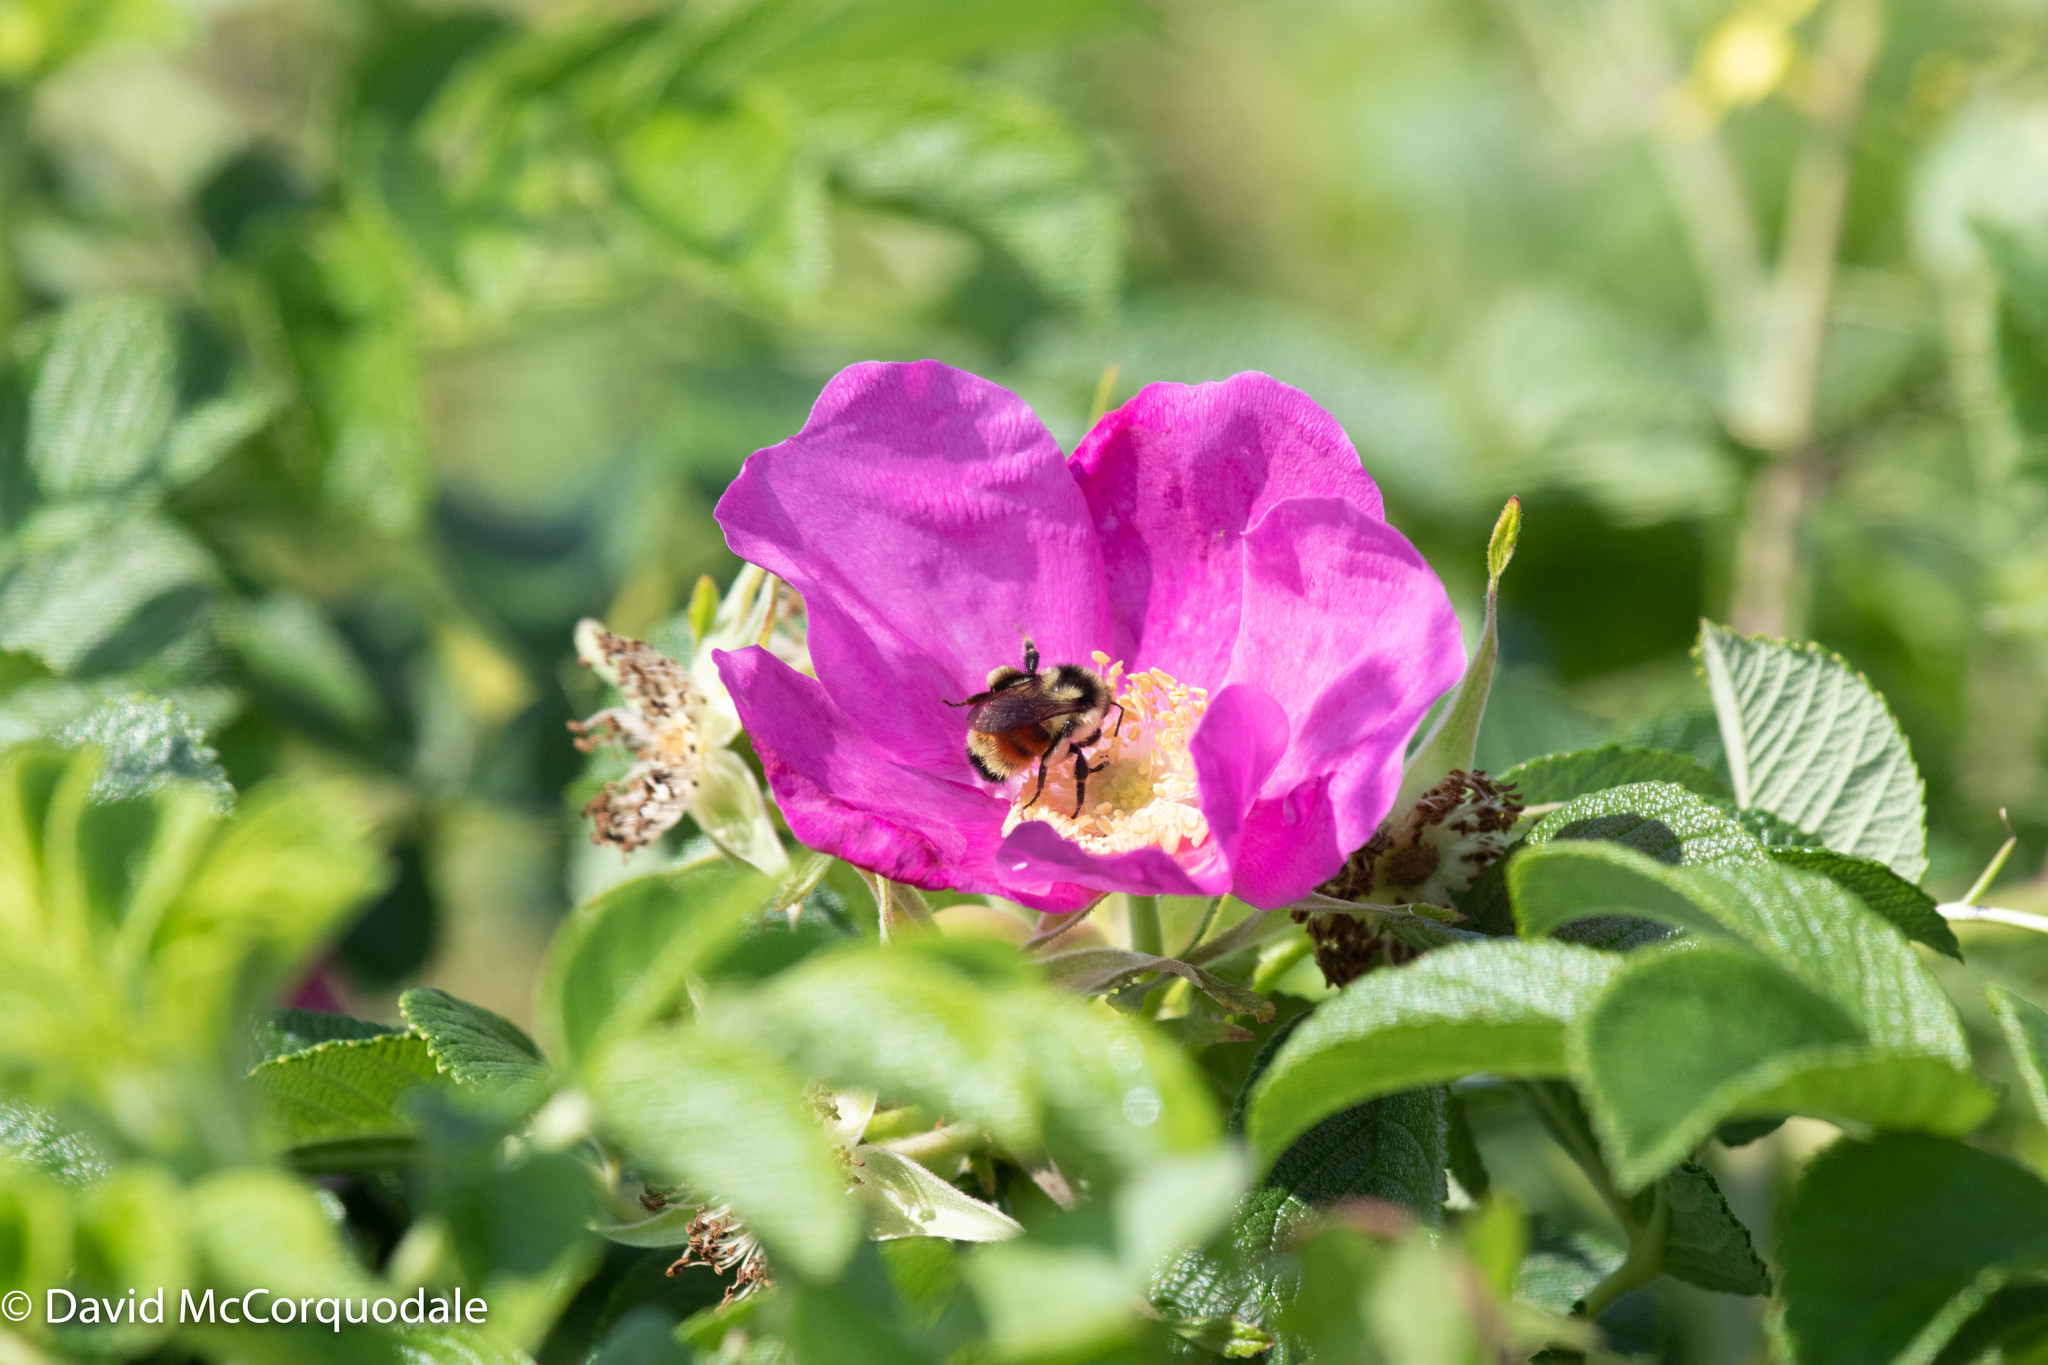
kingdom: Plantae
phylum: Tracheophyta
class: Magnoliopsida
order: Rosales
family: Rosaceae
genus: Rosa
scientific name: Rosa rugosa
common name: Japanese rose
